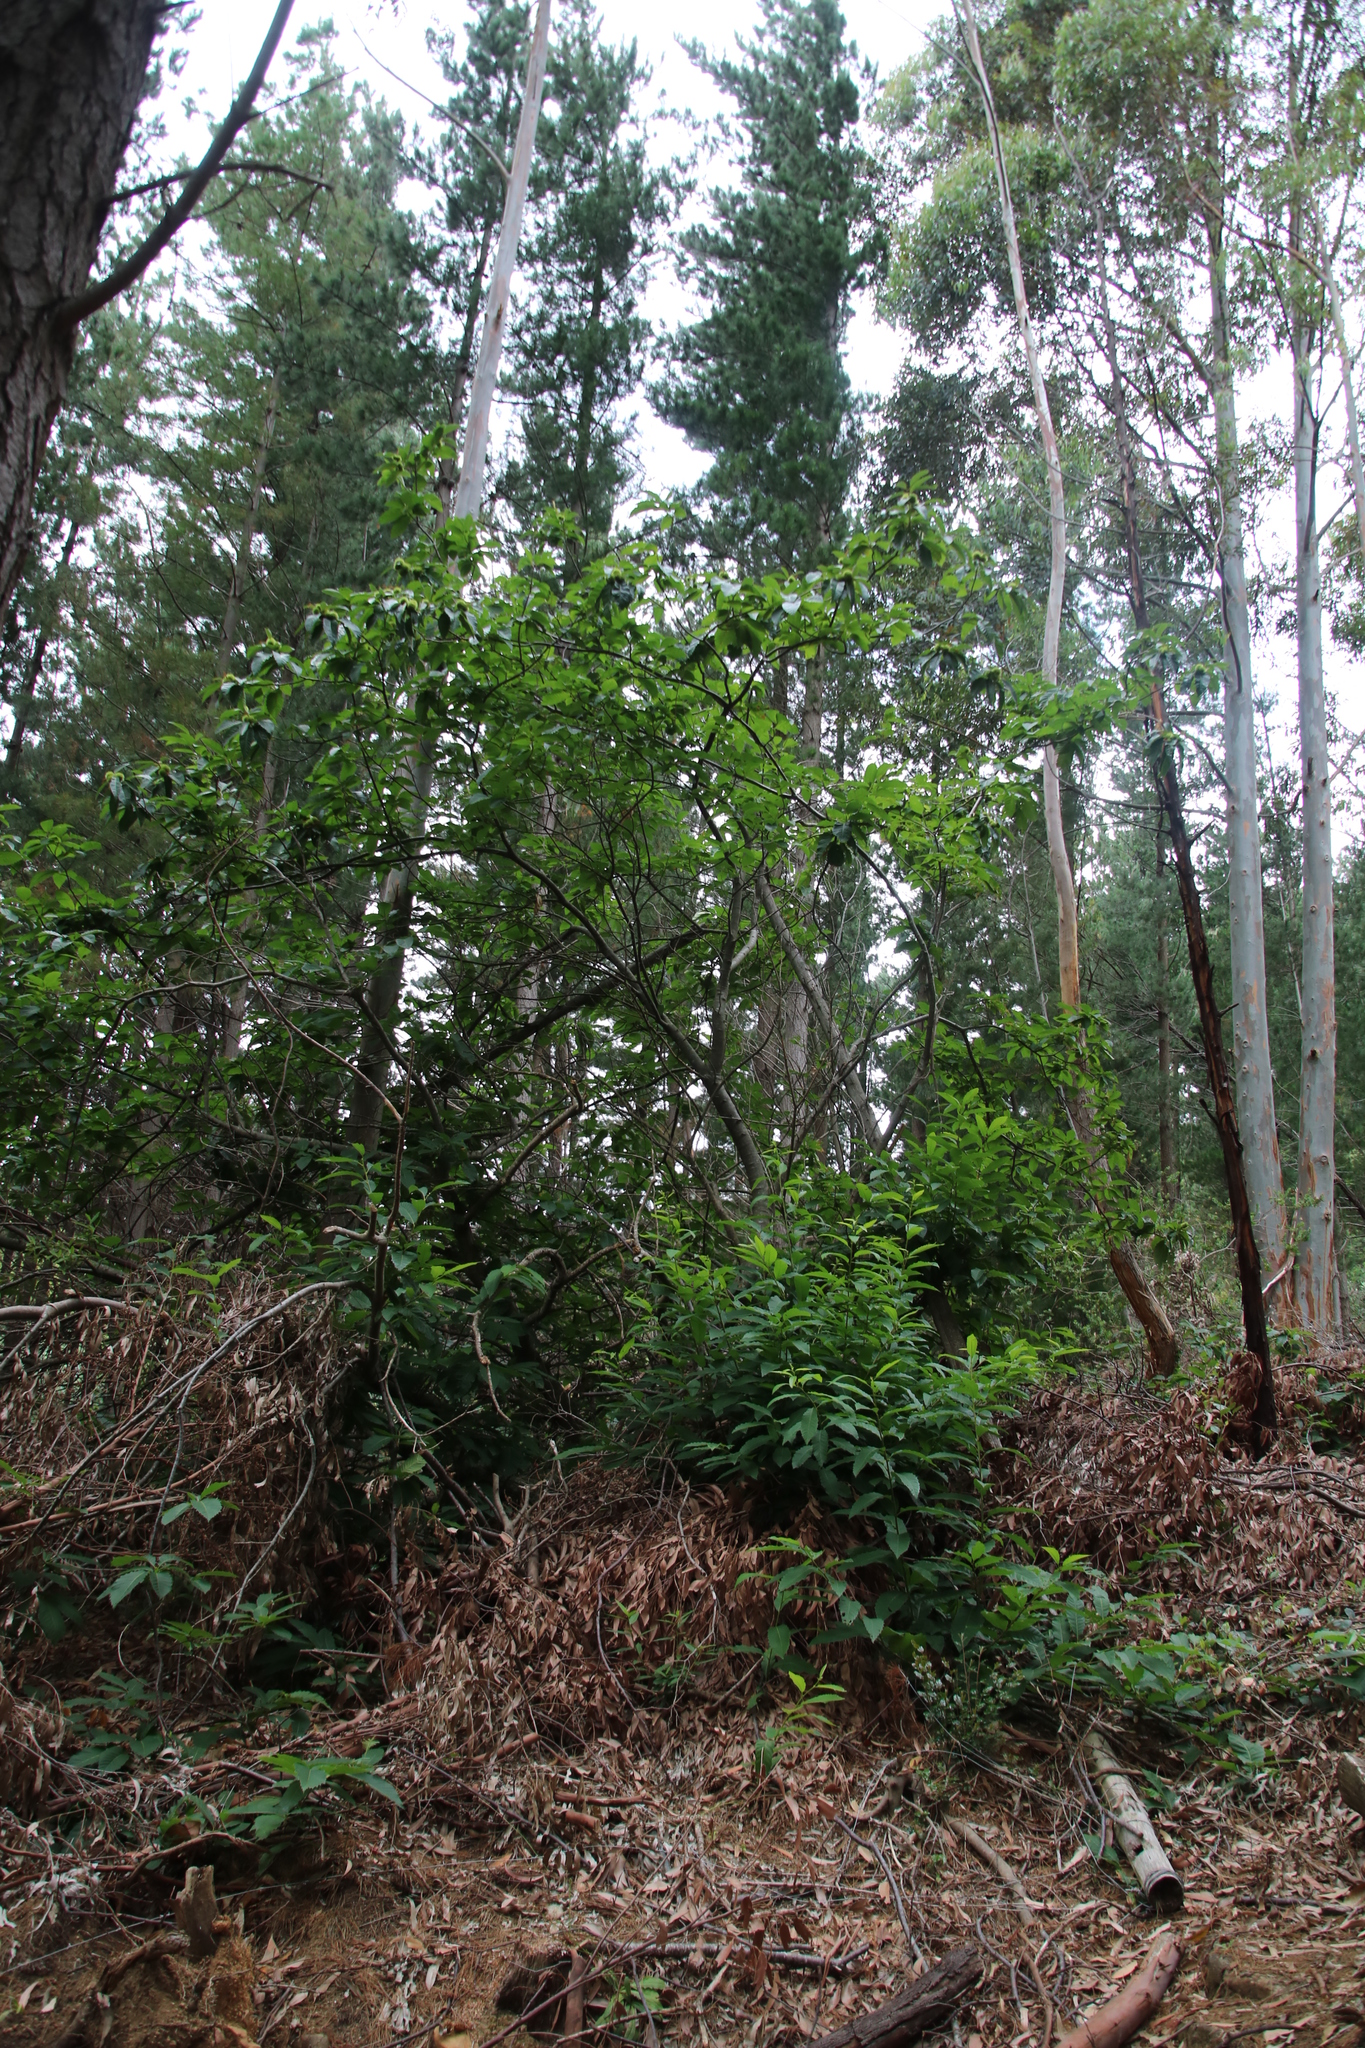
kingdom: Plantae
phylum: Tracheophyta
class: Magnoliopsida
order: Fagales
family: Fagaceae
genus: Castanea
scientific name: Castanea sativa
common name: Sweet chestnut
